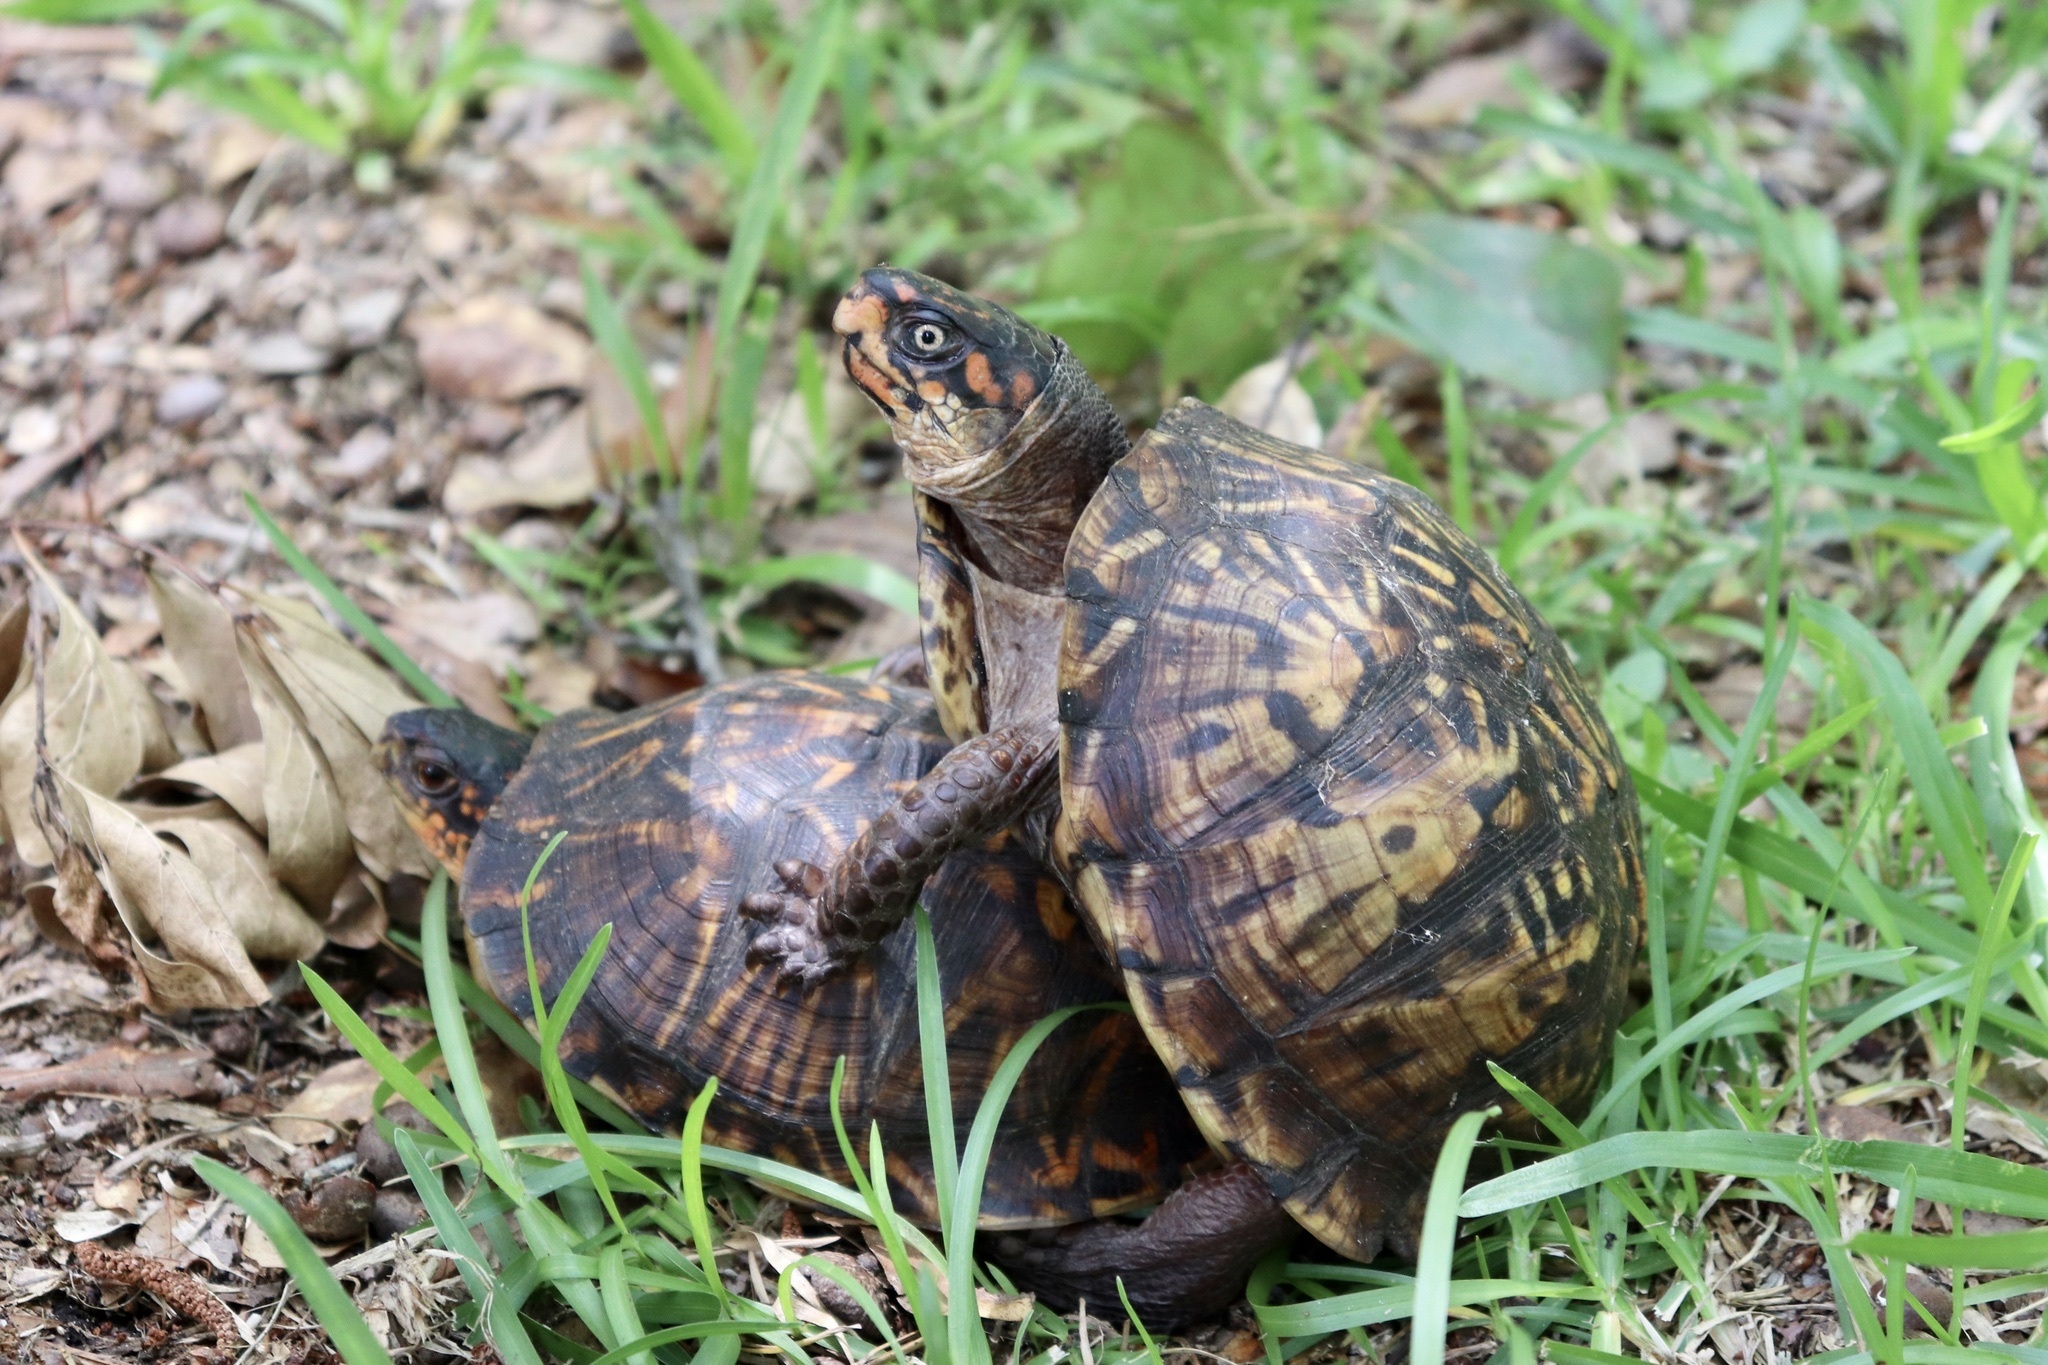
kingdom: Animalia
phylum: Chordata
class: Testudines
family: Emydidae
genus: Terrapene
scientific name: Terrapene carolina
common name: Common box turtle
